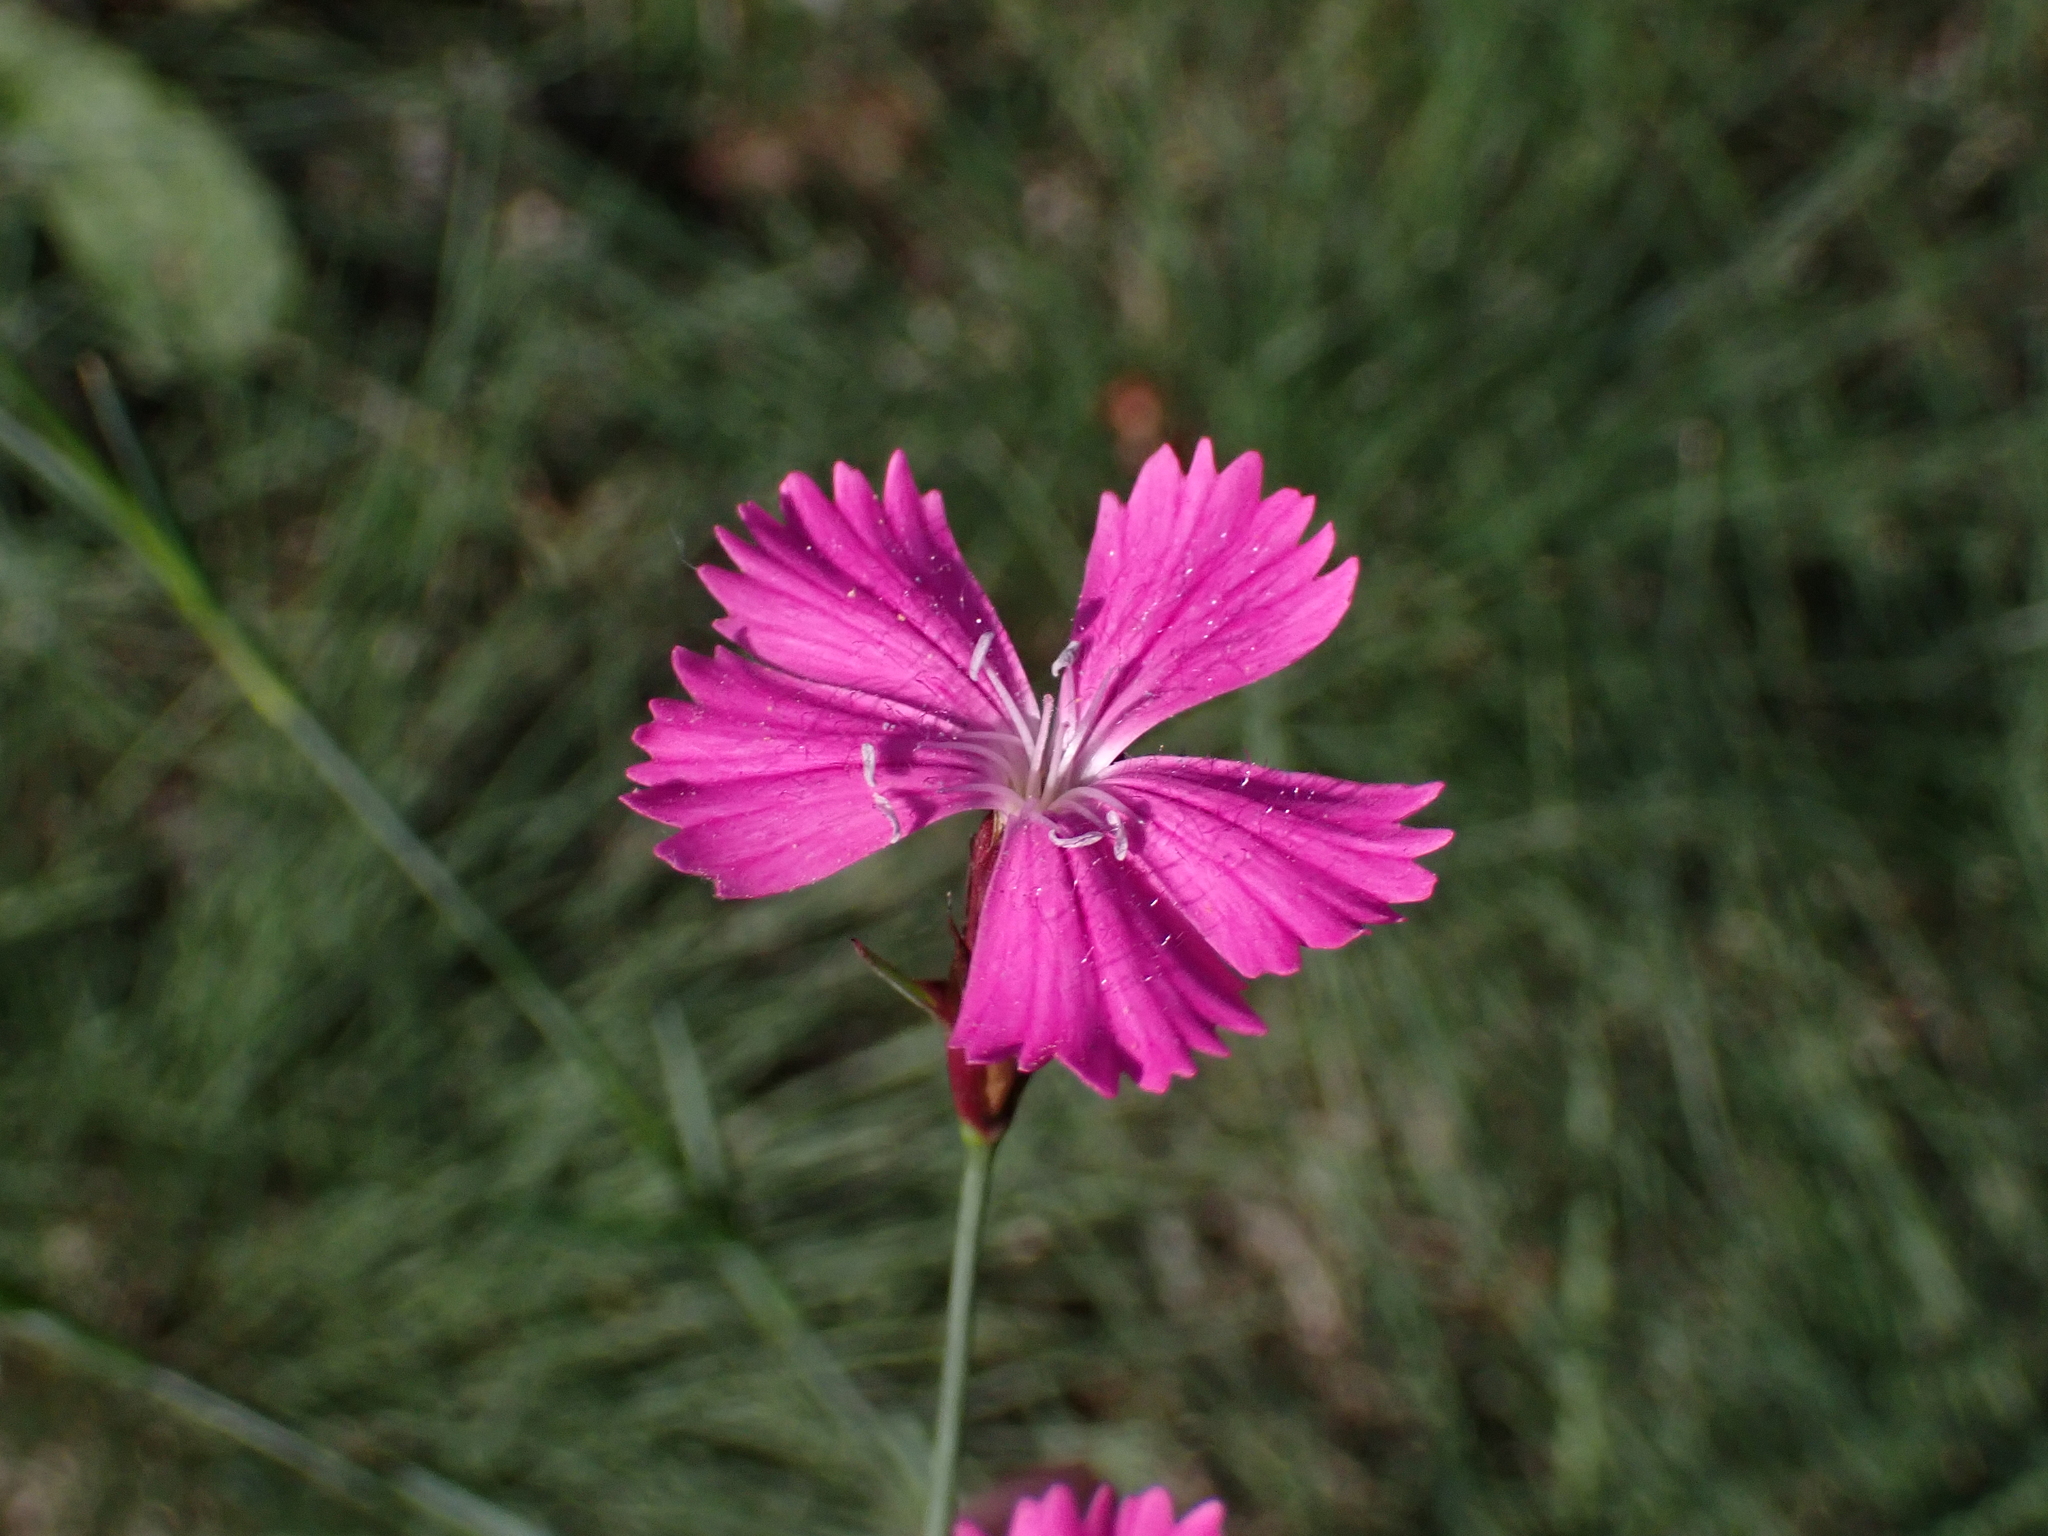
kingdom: Plantae
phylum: Tracheophyta
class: Magnoliopsida
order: Caryophyllales
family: Caryophyllaceae
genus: Dianthus
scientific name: Dianthus carthusianorum
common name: Carthusian pink
